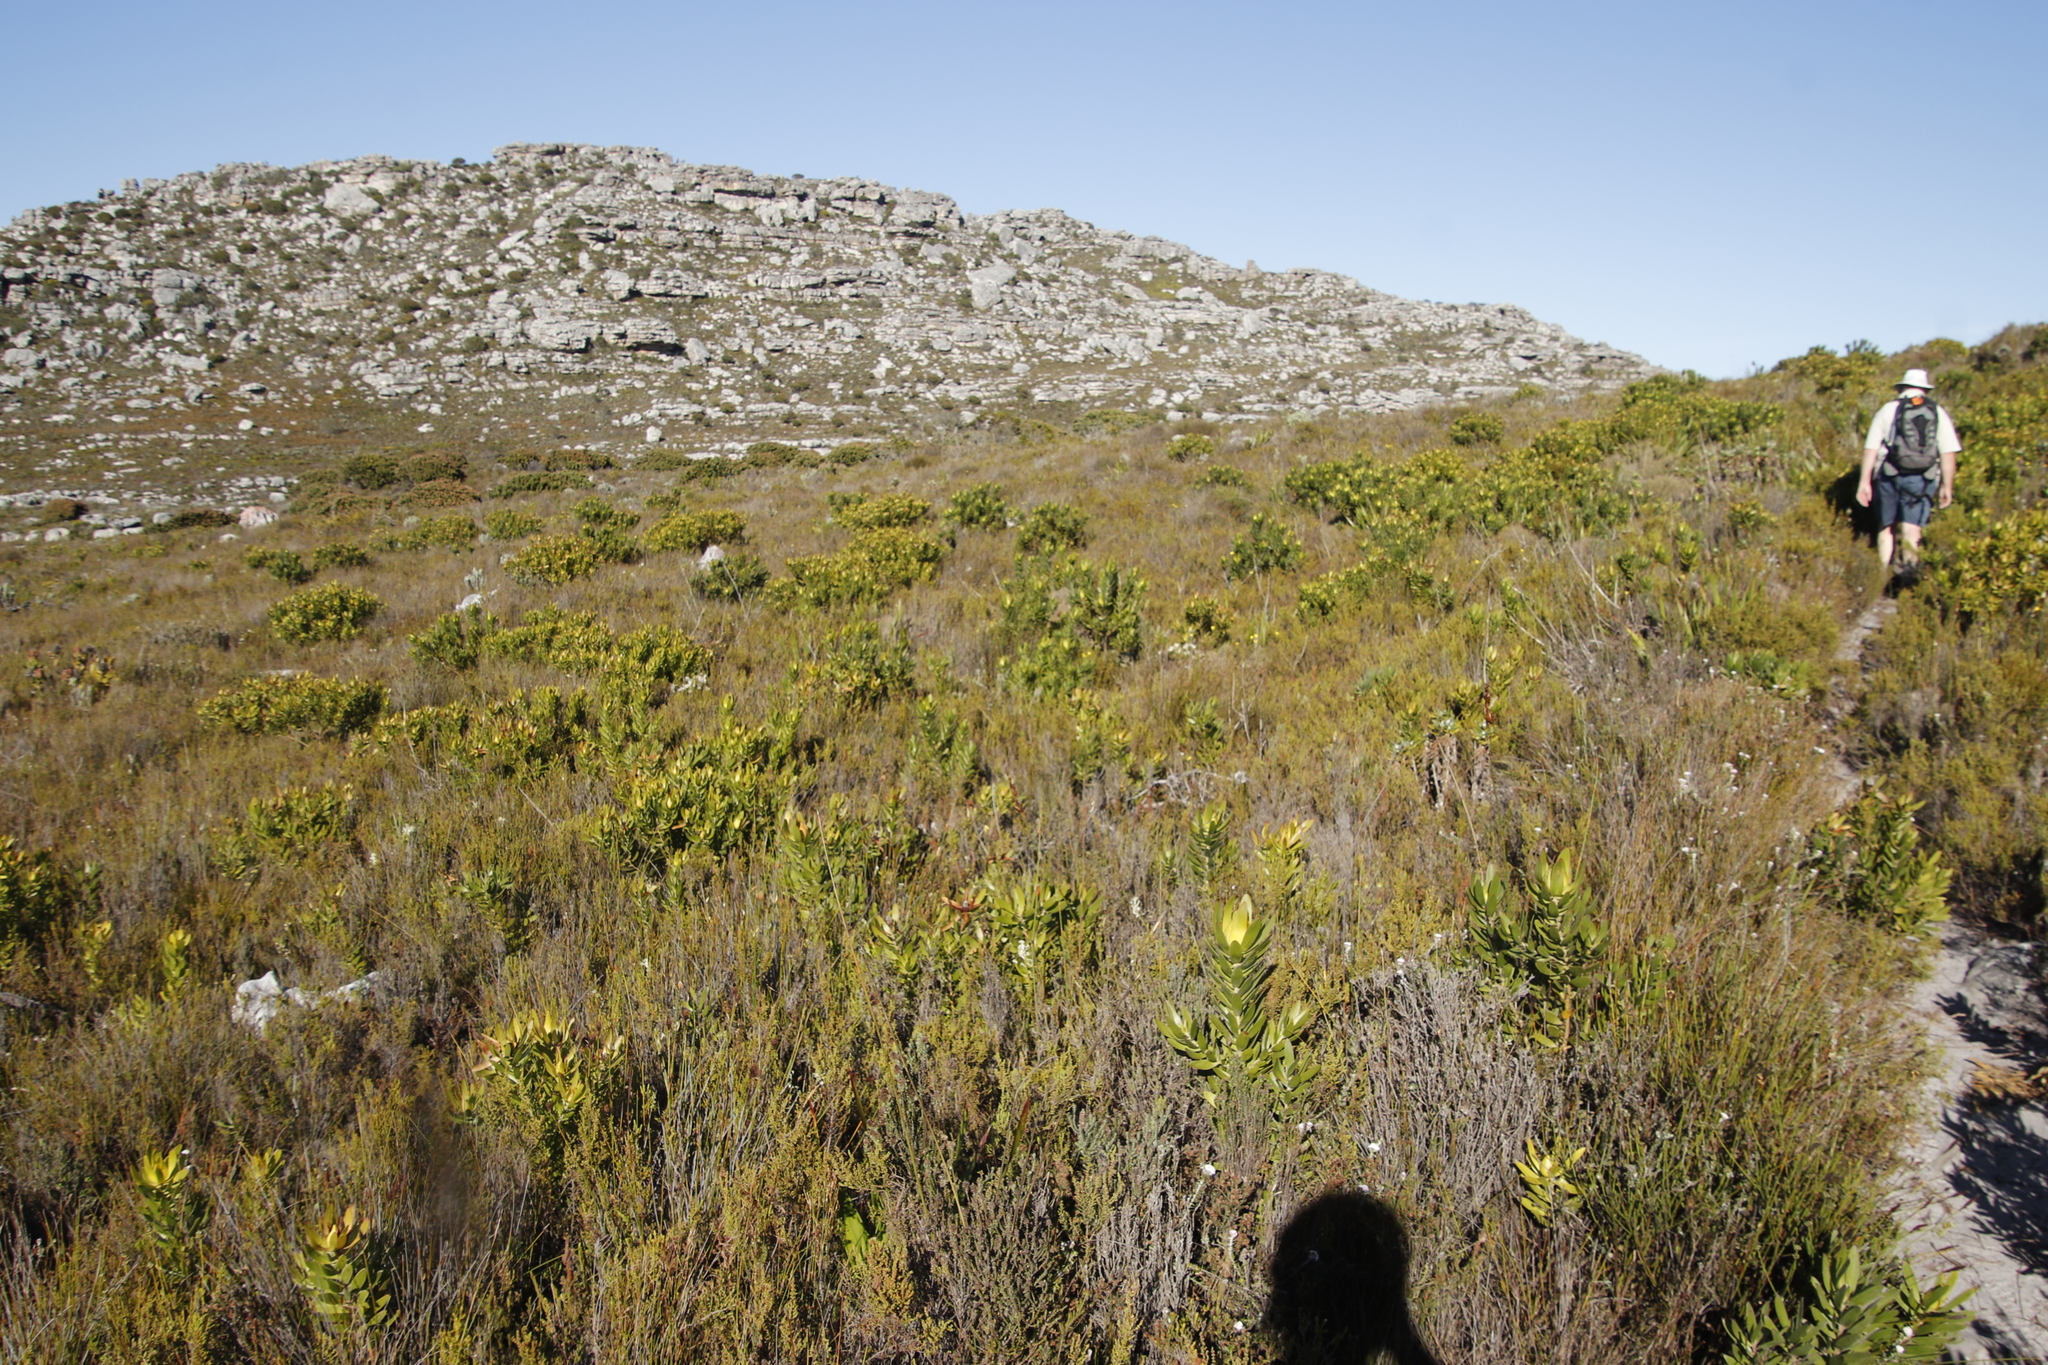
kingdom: Plantae
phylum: Tracheophyta
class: Magnoliopsida
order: Proteales
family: Proteaceae
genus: Leucadendron
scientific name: Leucadendron laureolum
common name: Golden sunshinebush
